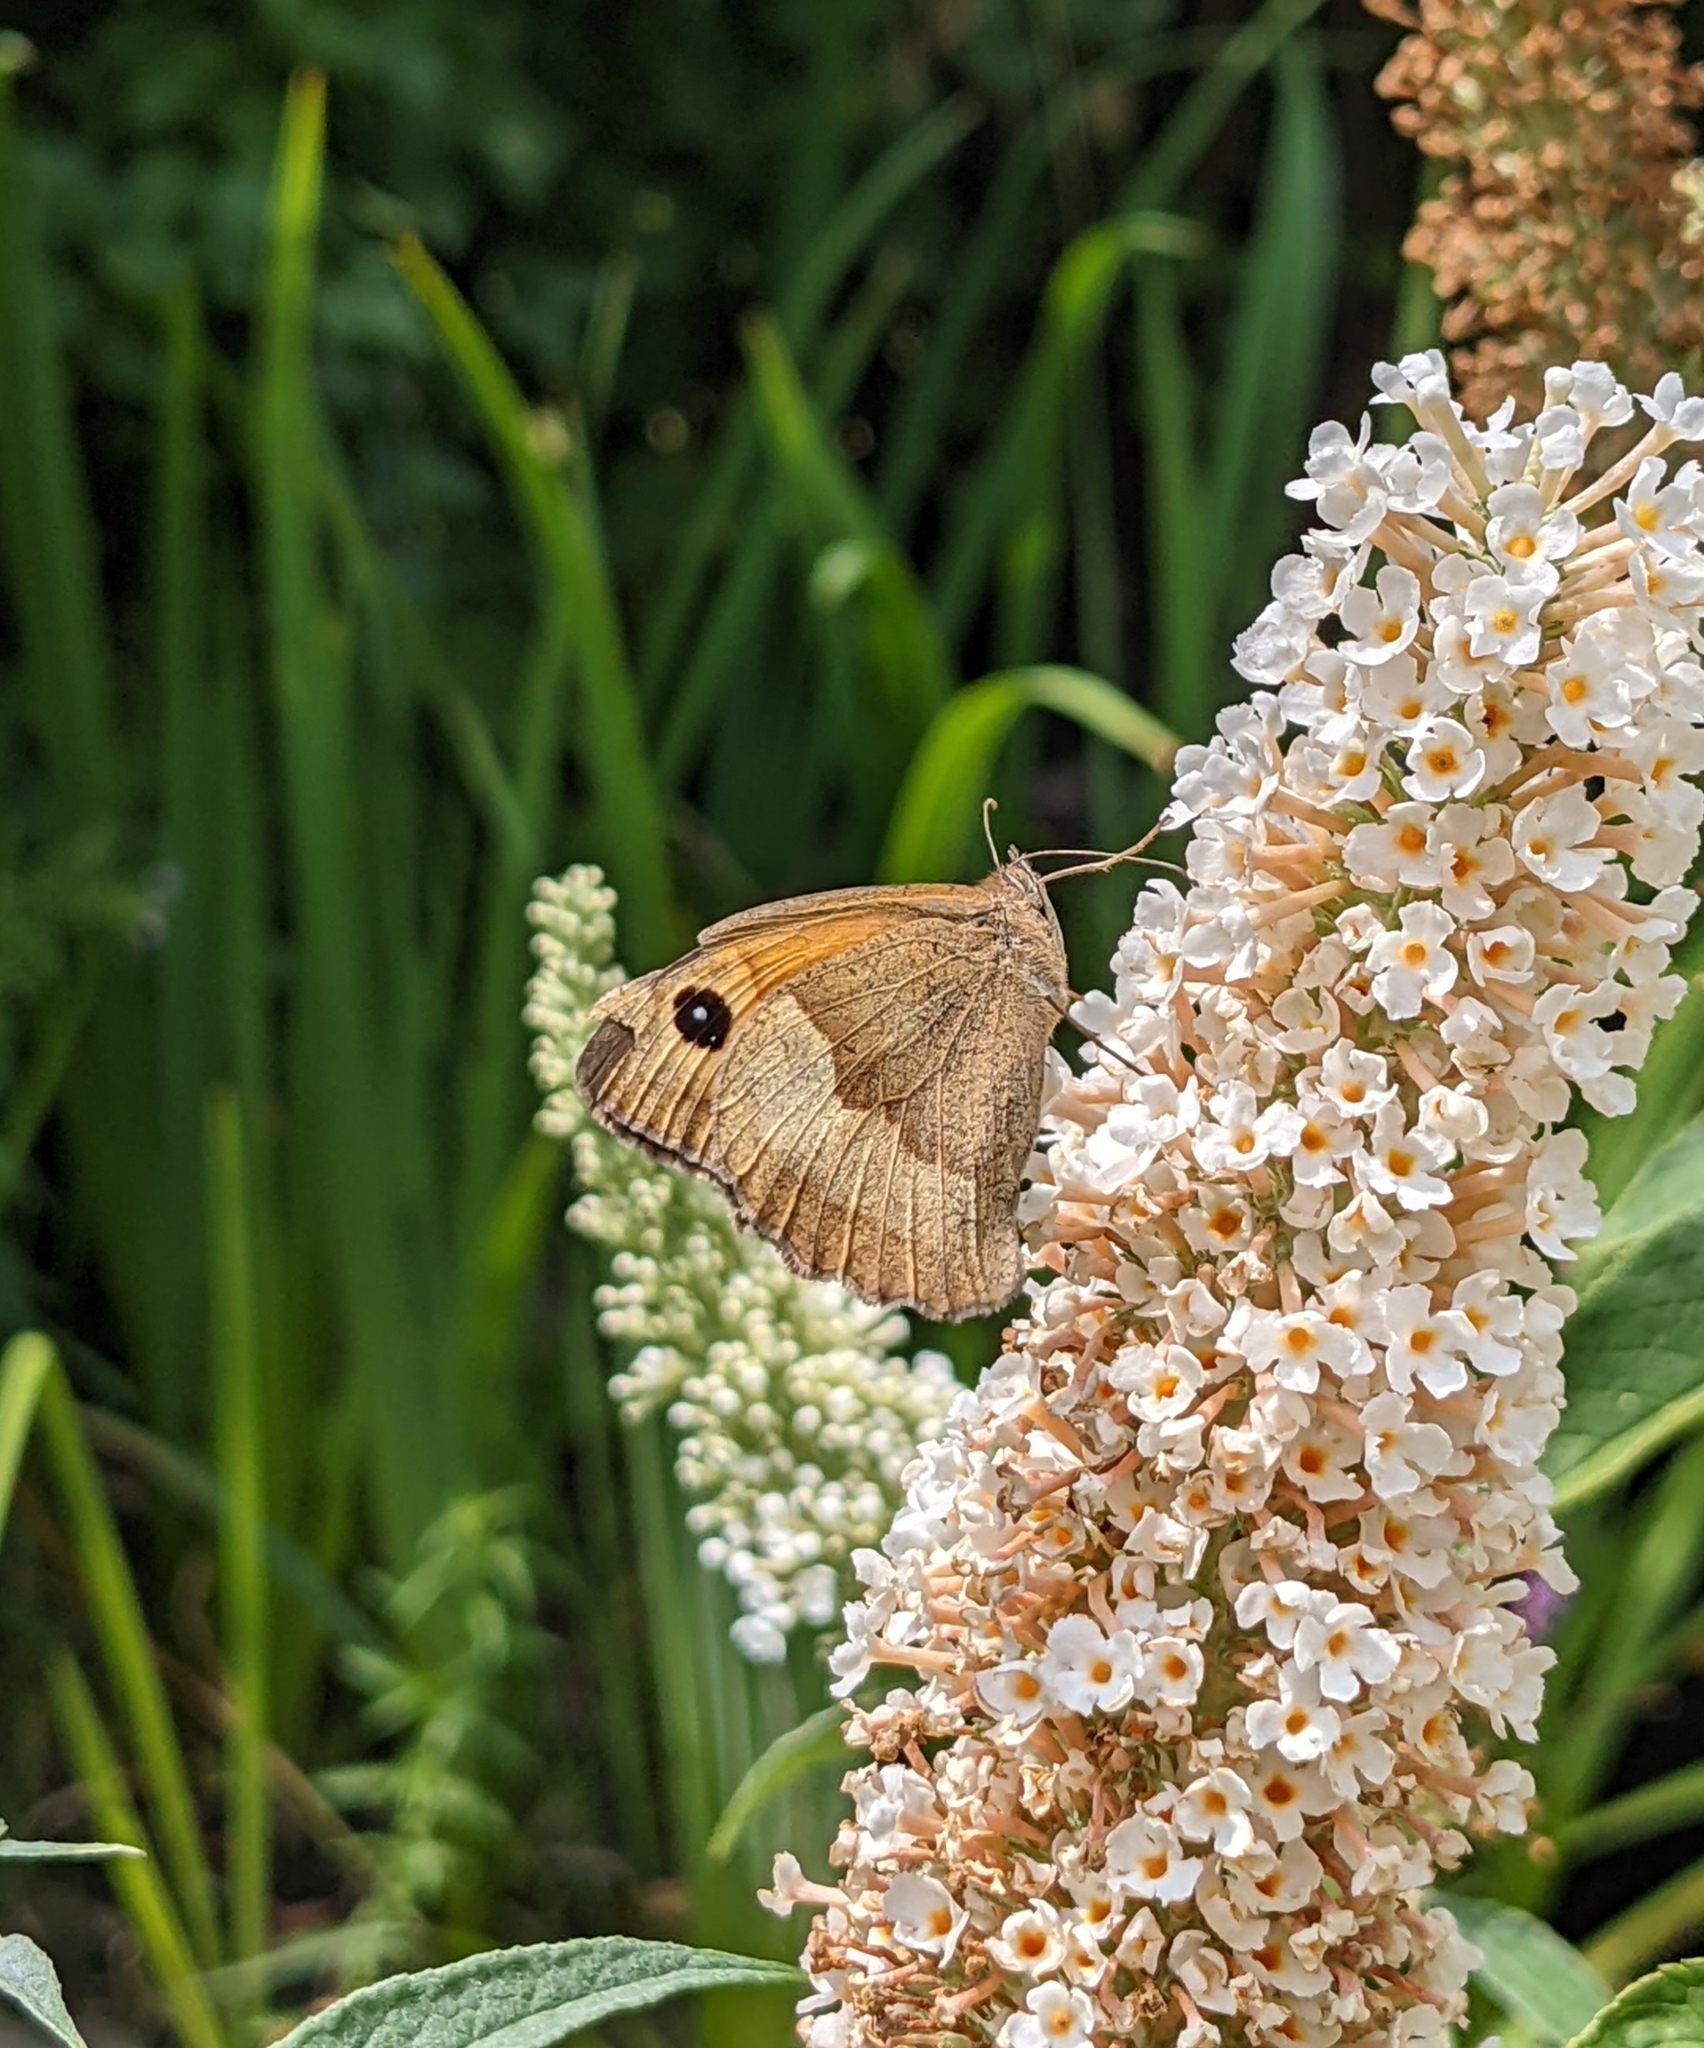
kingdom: Animalia
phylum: Arthropoda
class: Insecta
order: Lepidoptera
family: Nymphalidae
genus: Maniola
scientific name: Maniola jurtina
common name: Meadow brown
